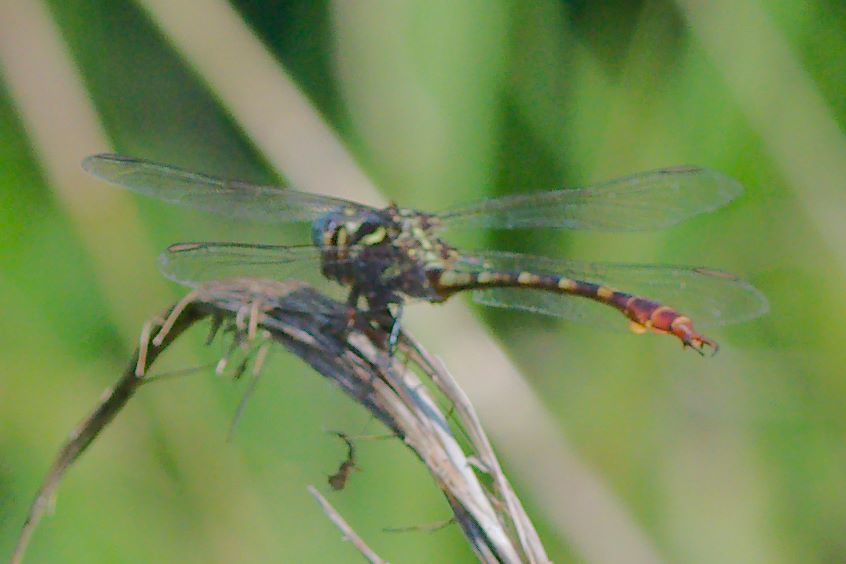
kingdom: Animalia
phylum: Arthropoda
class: Insecta
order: Odonata
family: Gomphidae
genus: Aphylla
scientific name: Aphylla williamsoni
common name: Two-striped forceptail
